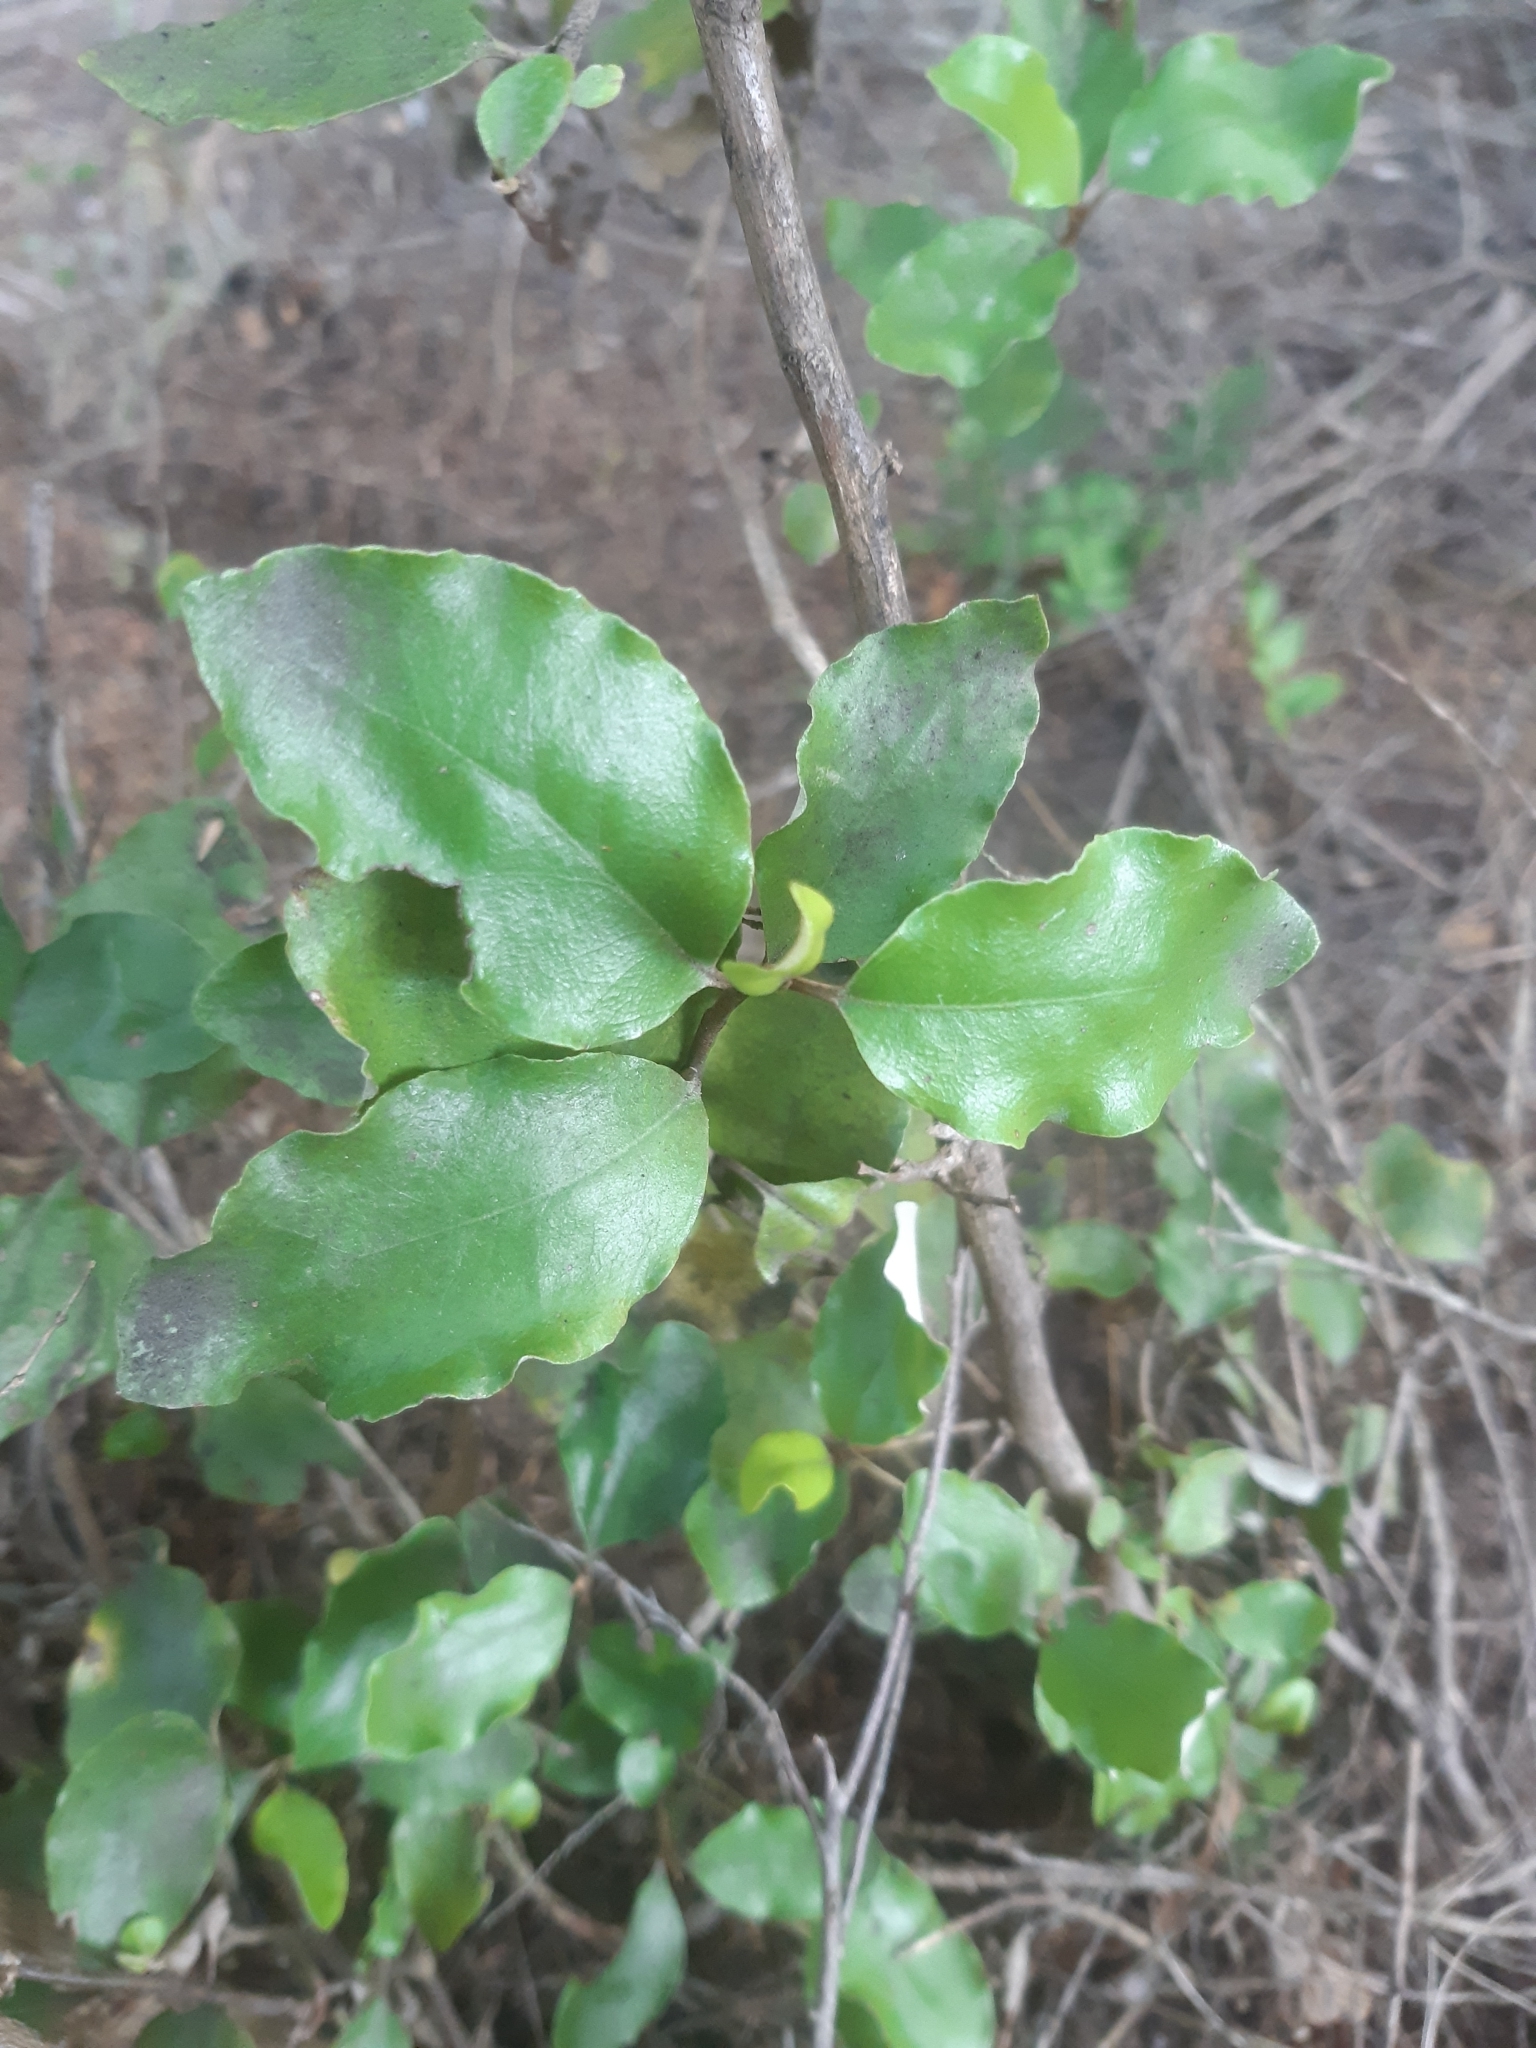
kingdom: Plantae
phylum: Tracheophyta
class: Magnoliopsida
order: Asterales
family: Asteraceae
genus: Olearia
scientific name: Olearia paniculata
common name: Akiraho
